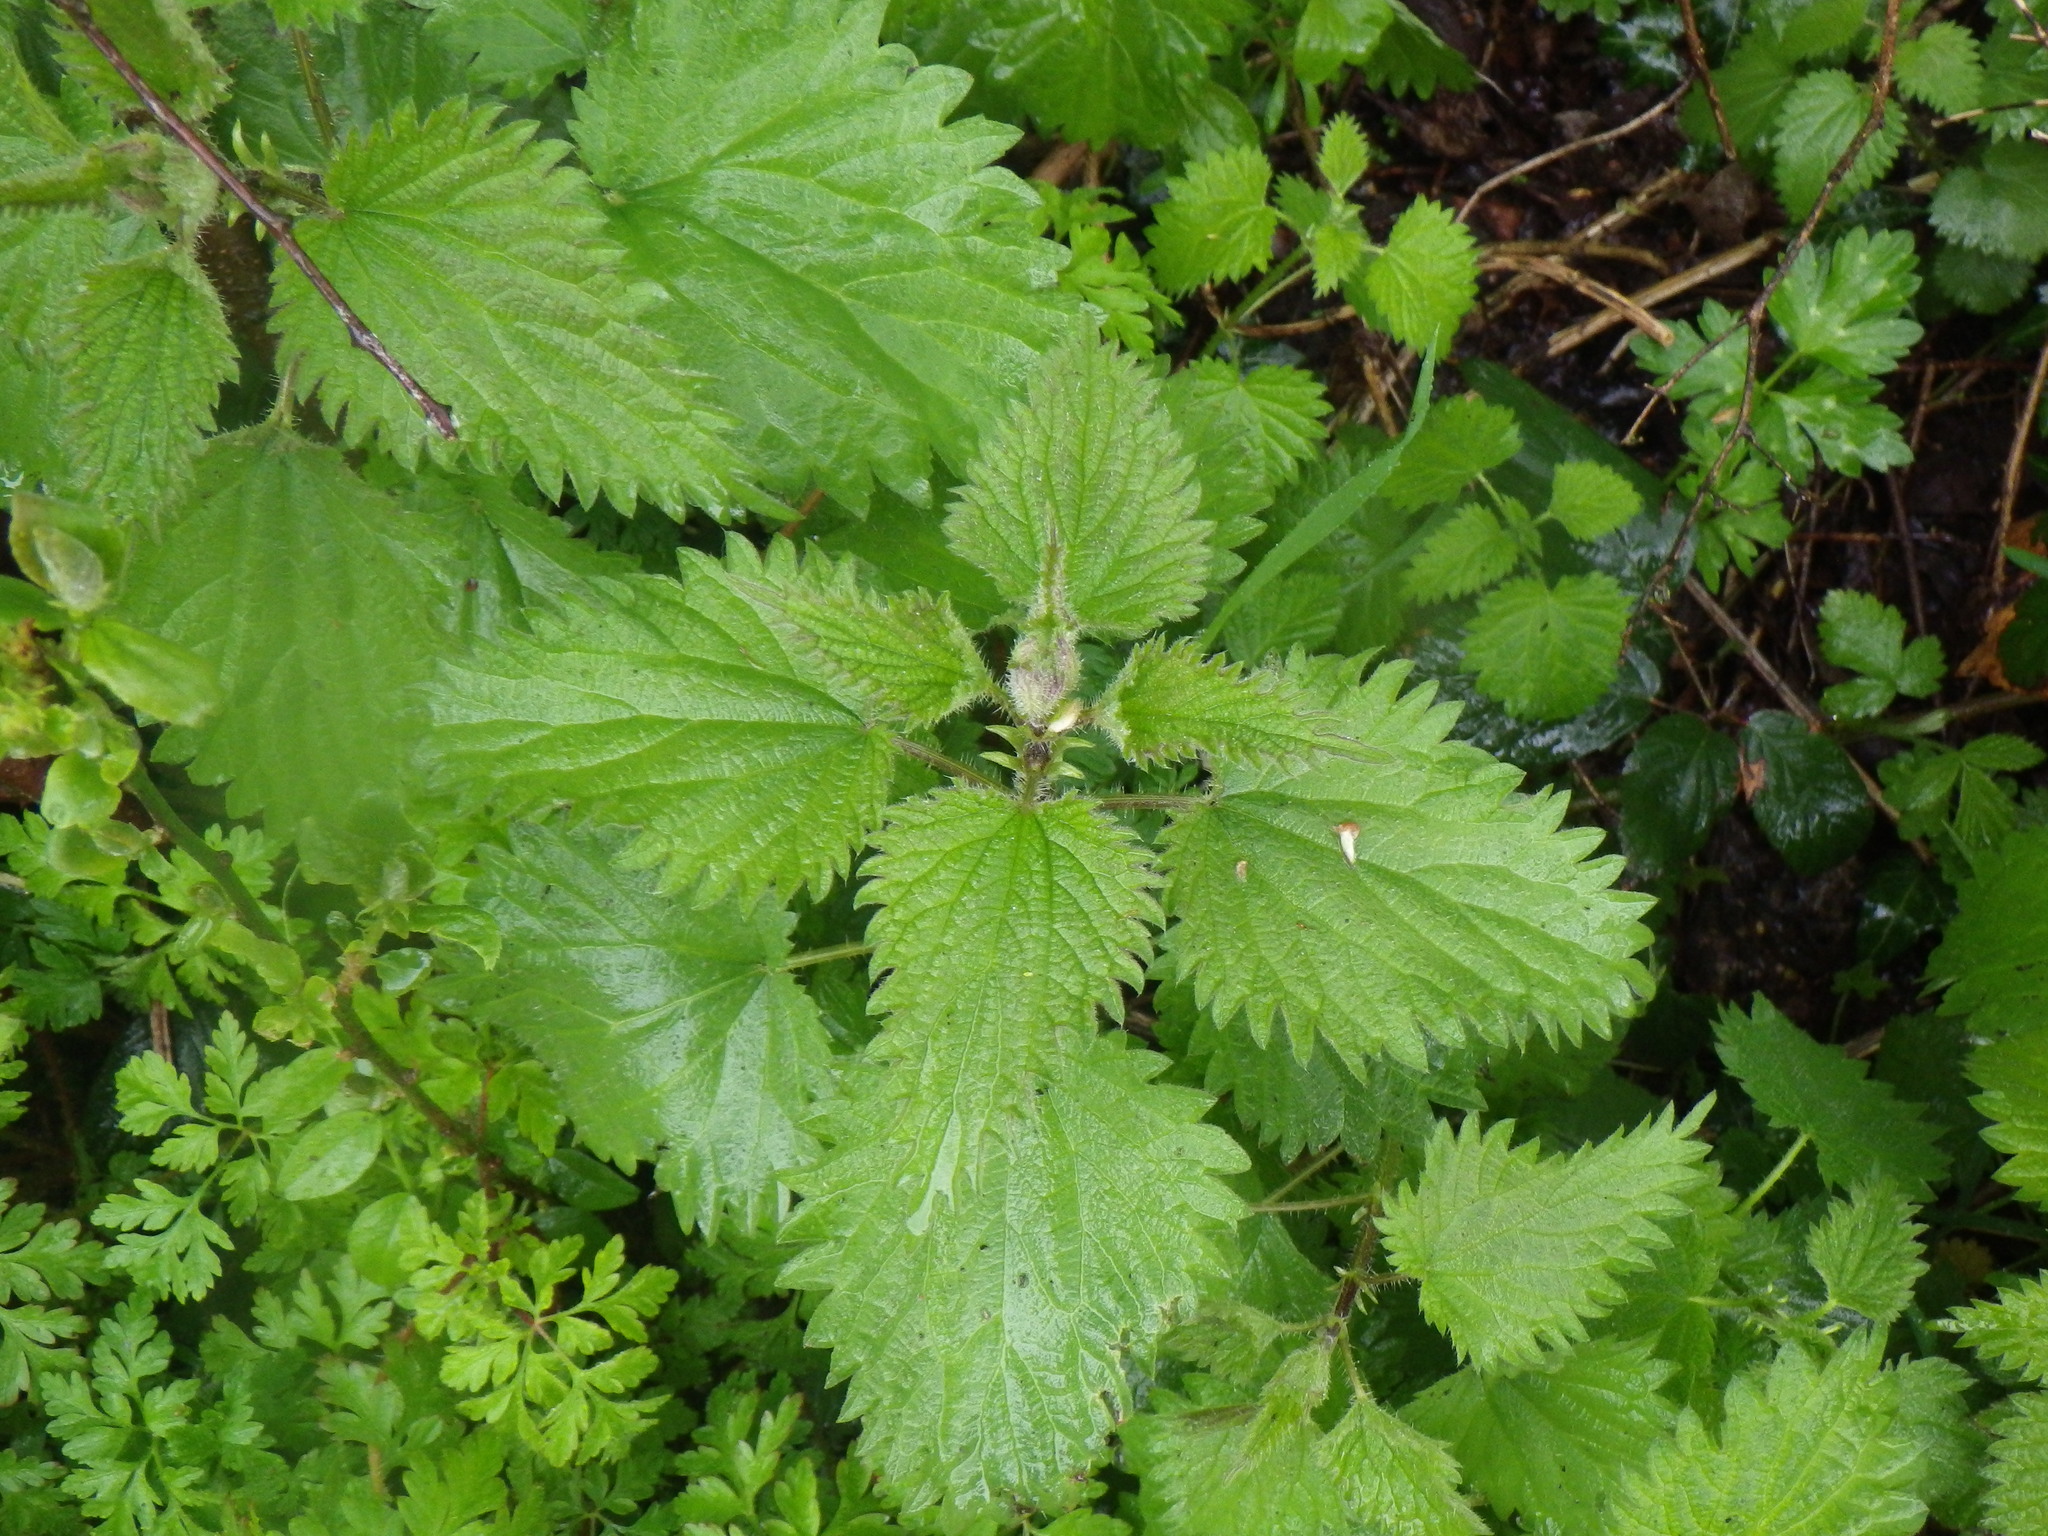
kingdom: Plantae
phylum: Tracheophyta
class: Magnoliopsida
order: Rosales
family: Urticaceae
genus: Urtica
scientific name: Urtica dioica
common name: Common nettle
